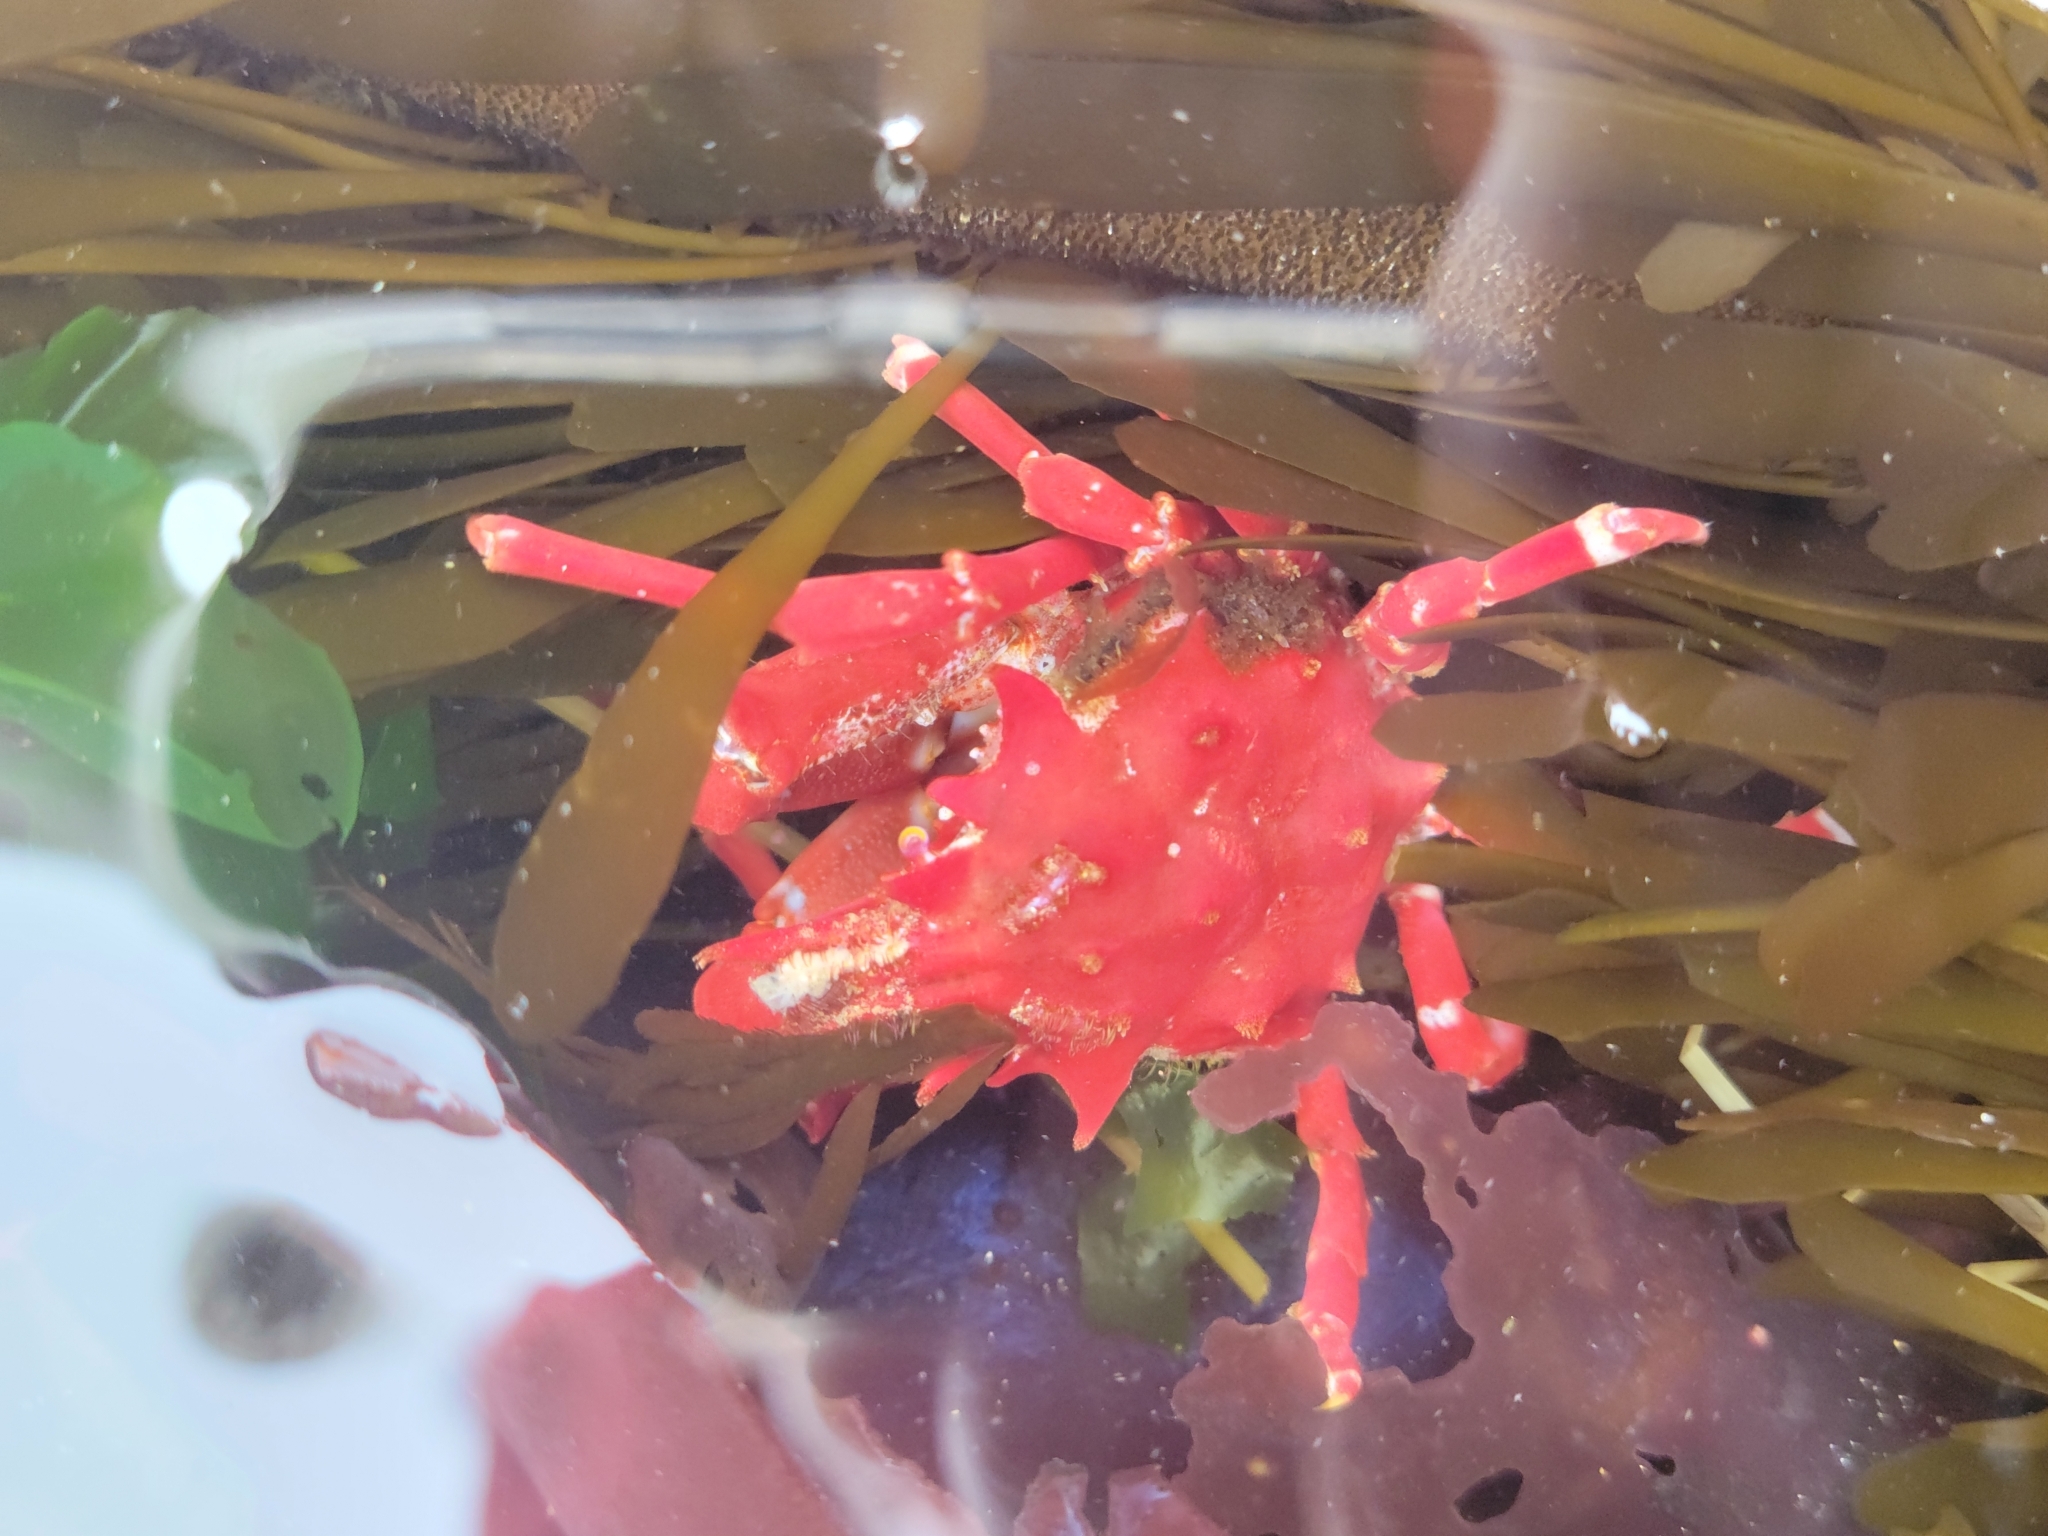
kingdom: Animalia
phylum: Arthropoda
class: Malacostraca
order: Decapoda
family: Epialtidae
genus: Pugettia
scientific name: Pugettia richii
